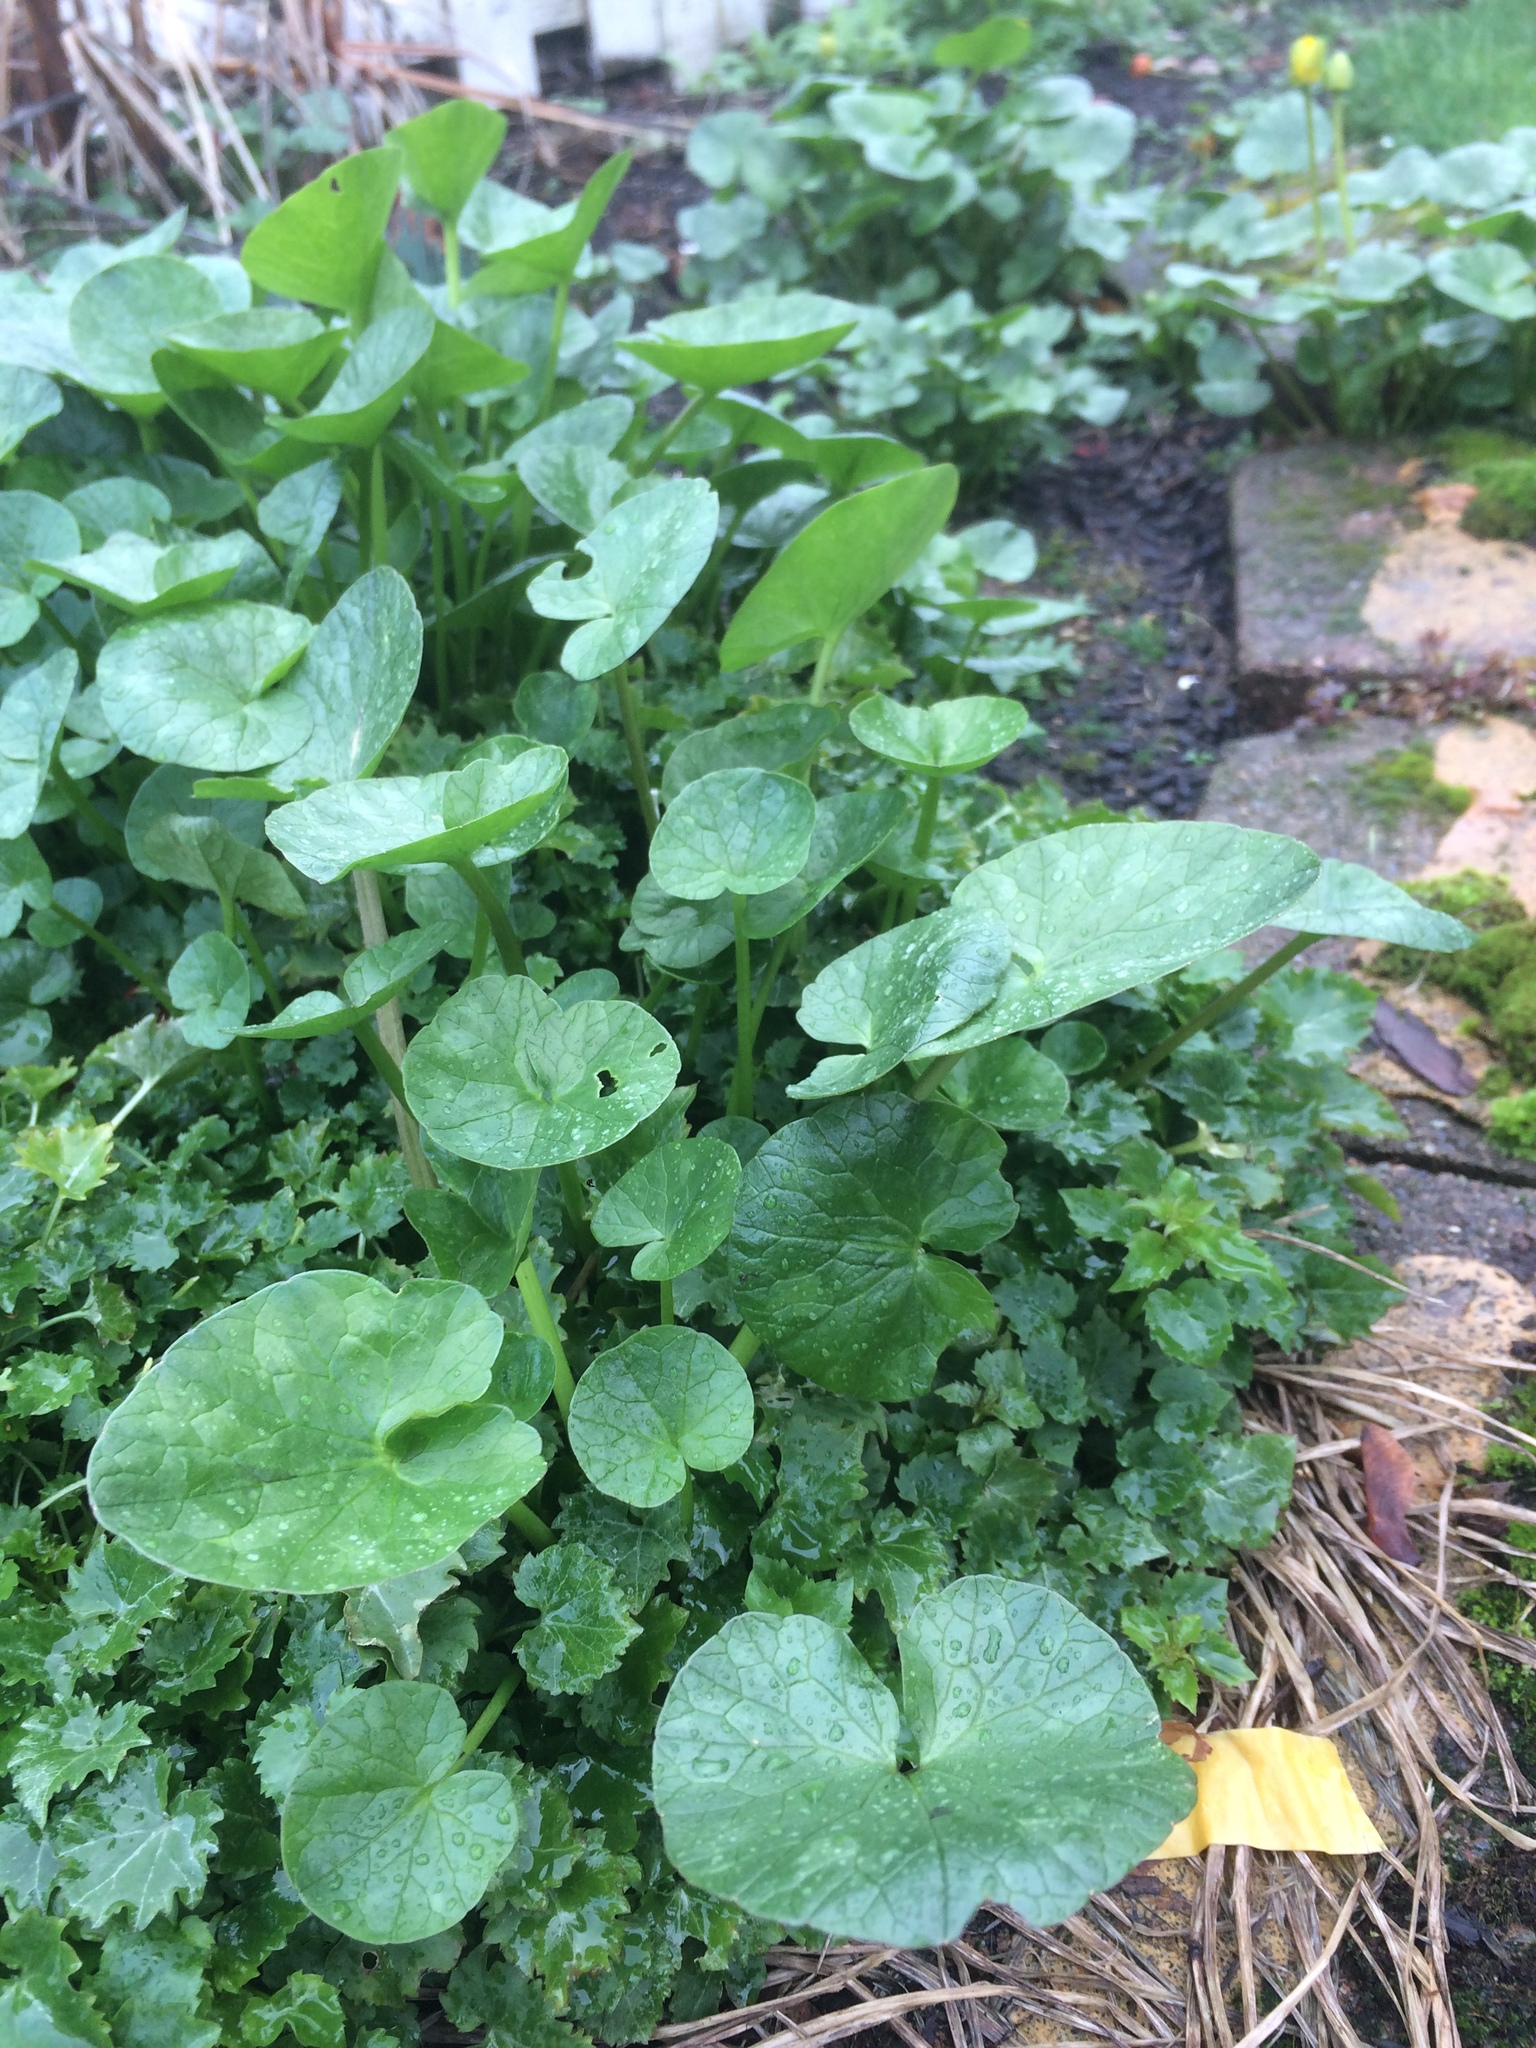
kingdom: Plantae
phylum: Tracheophyta
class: Magnoliopsida
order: Ranunculales
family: Ranunculaceae
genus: Ficaria
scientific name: Ficaria verna
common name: Lesser celandine
